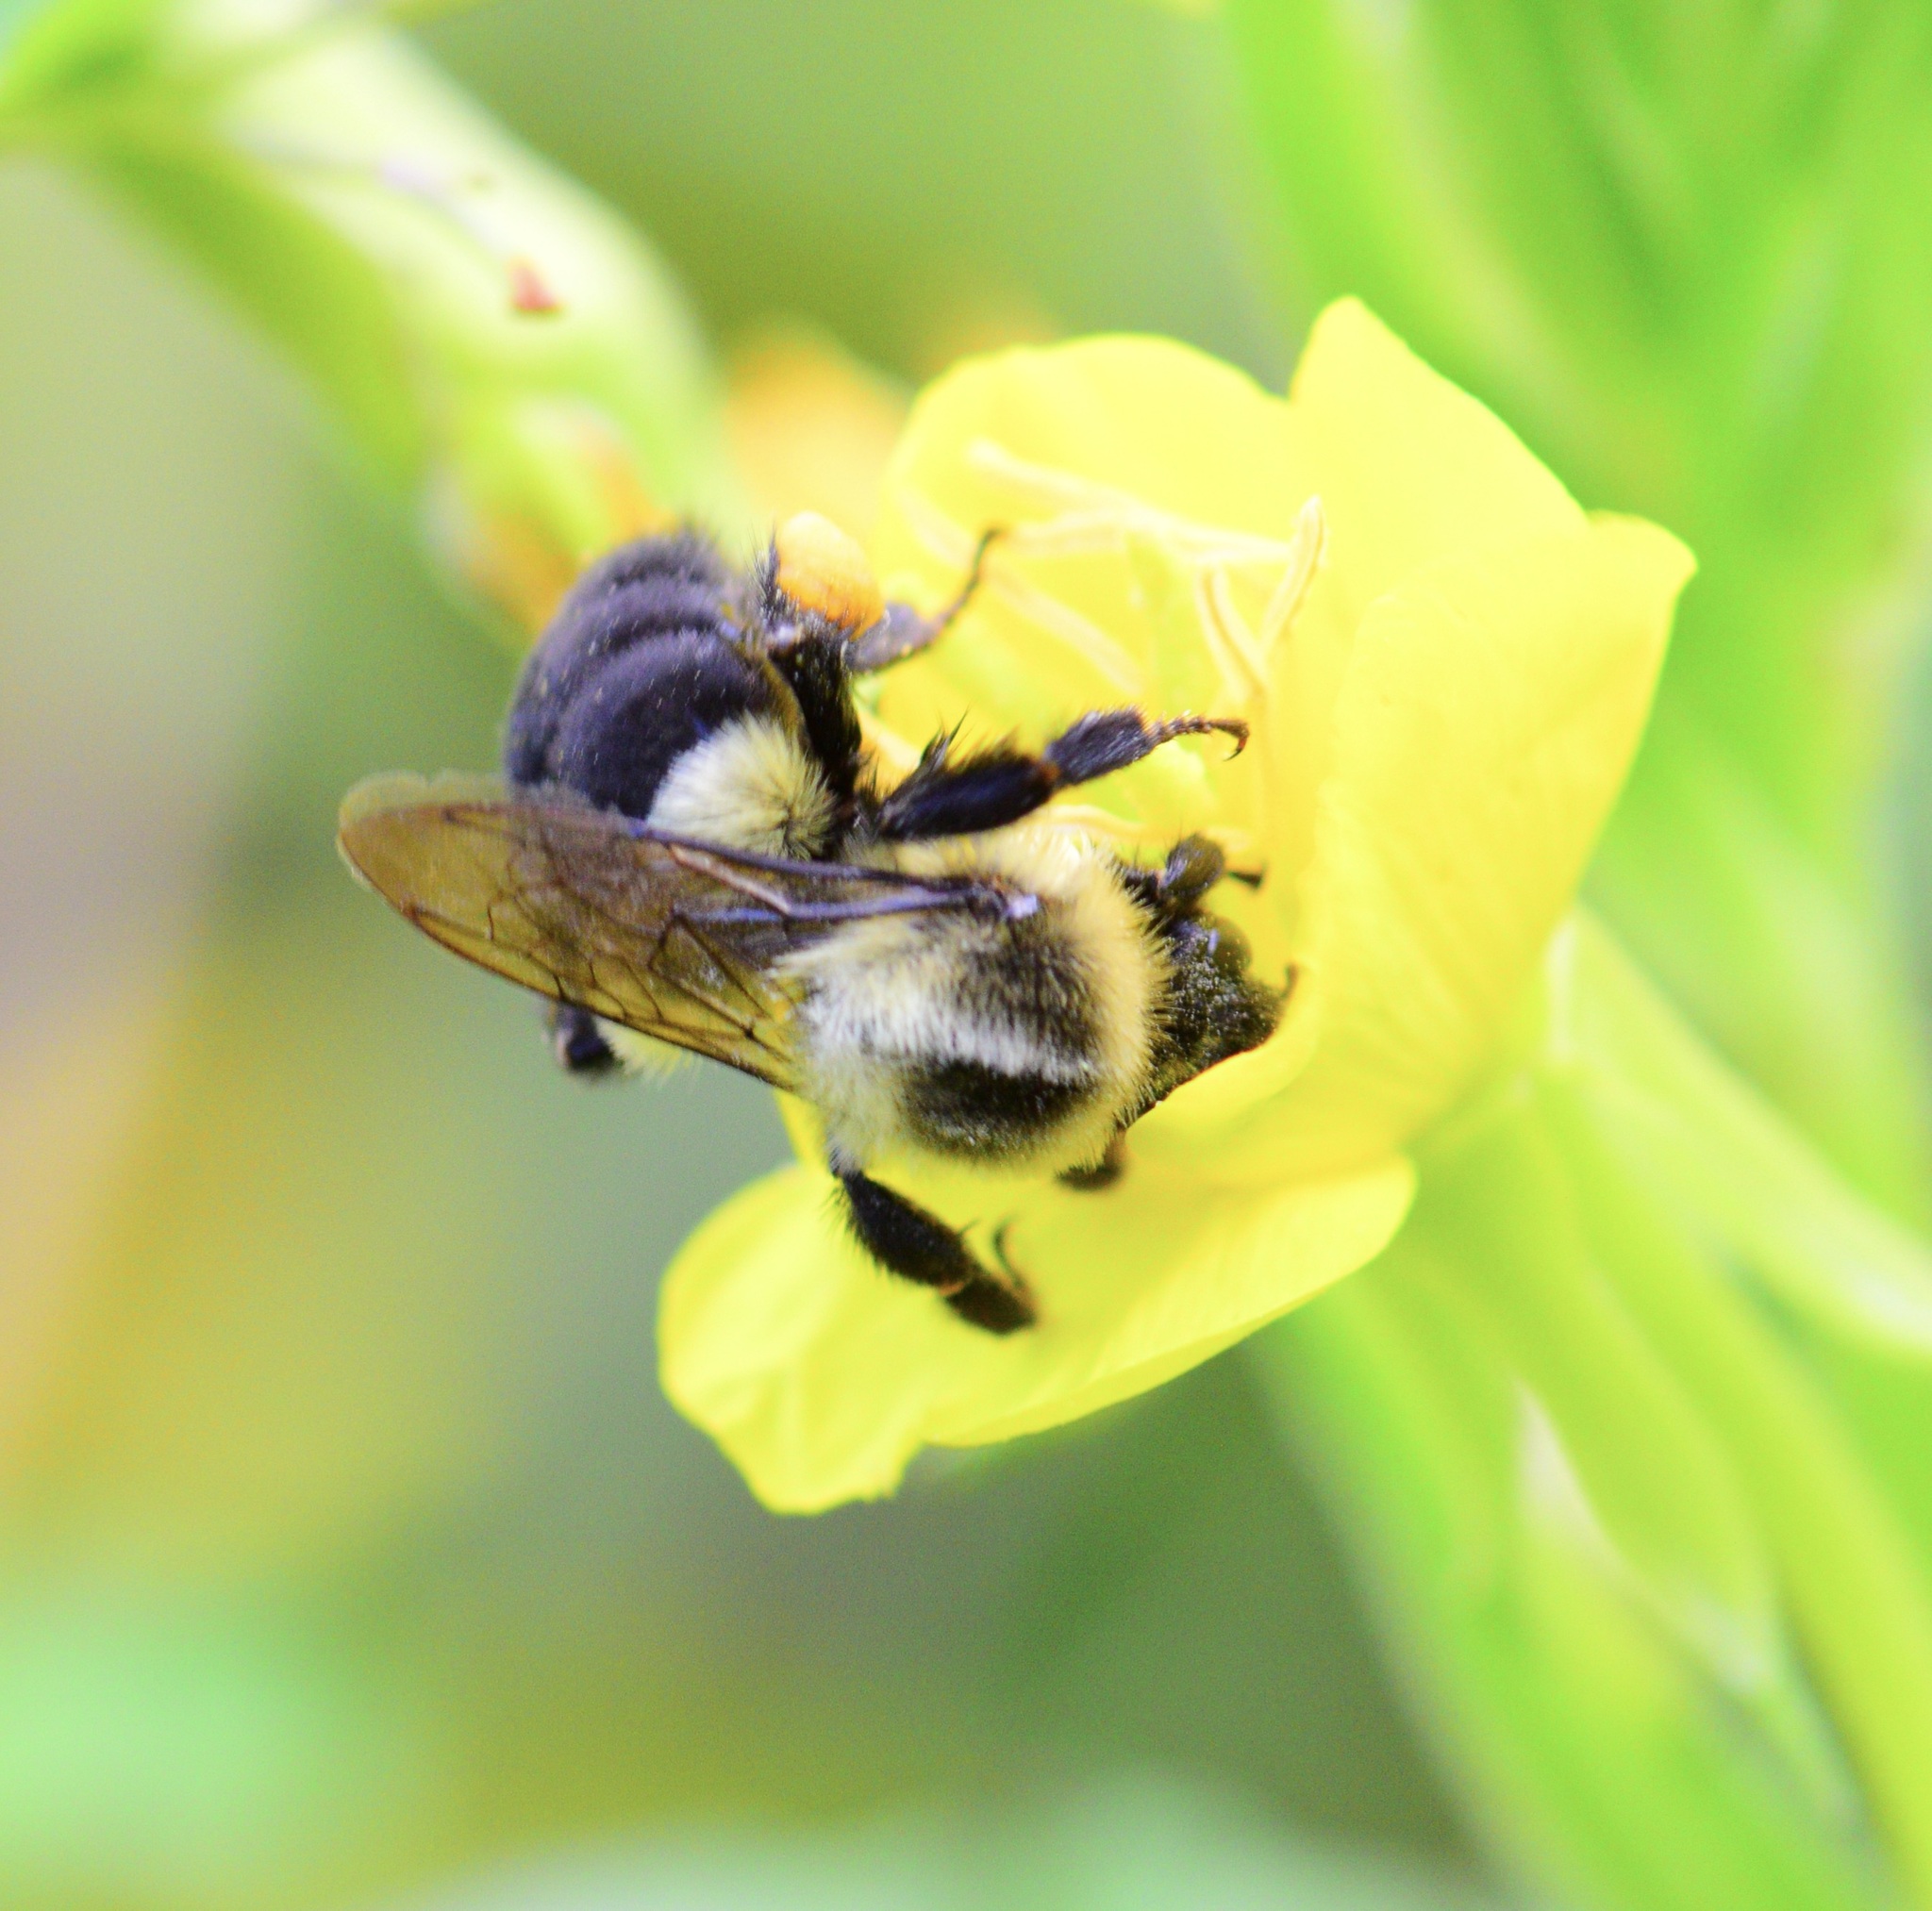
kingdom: Animalia
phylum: Arthropoda
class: Insecta
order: Hymenoptera
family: Apidae
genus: Bombus
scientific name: Bombus impatiens
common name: Common eastern bumble bee
